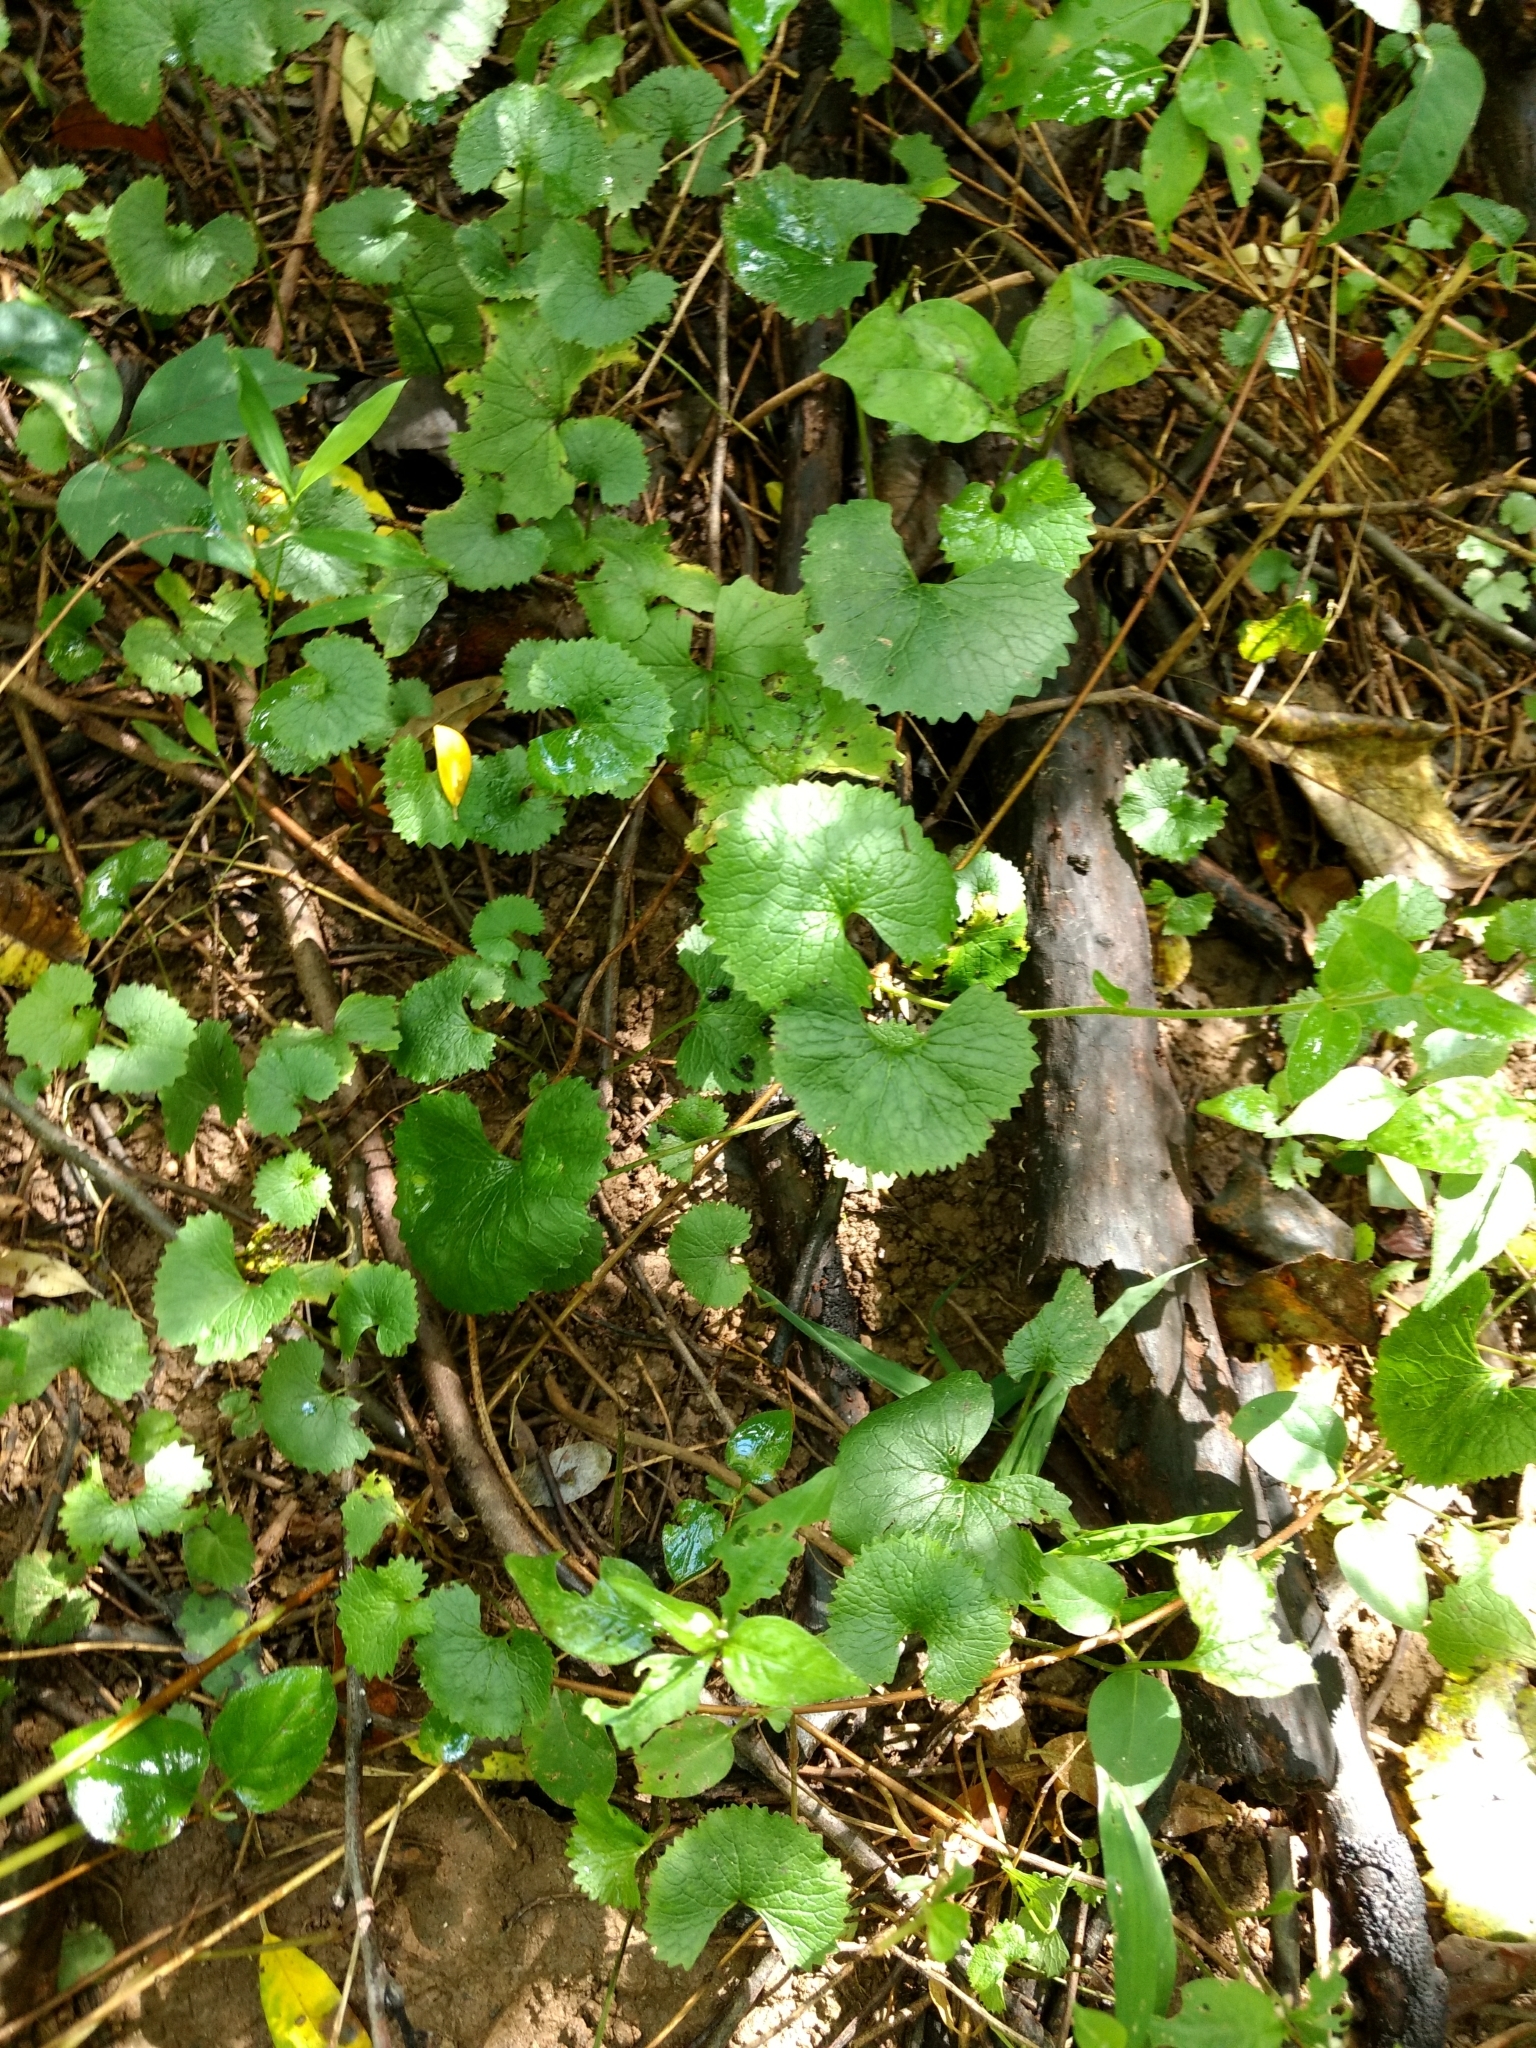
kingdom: Plantae
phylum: Tracheophyta
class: Magnoliopsida
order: Brassicales
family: Brassicaceae
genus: Alliaria
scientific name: Alliaria petiolata
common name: Garlic mustard
